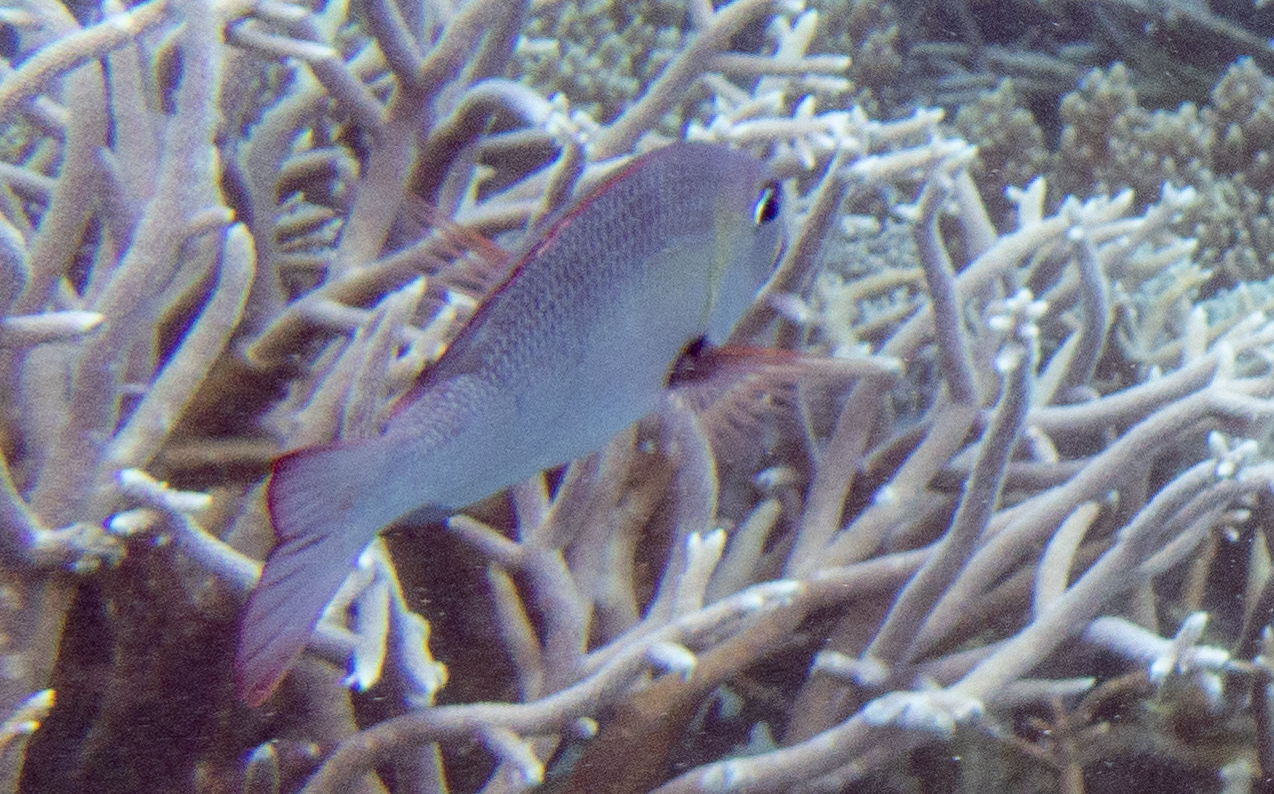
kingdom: Animalia
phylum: Chordata
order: Perciformes
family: Lethrinidae
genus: Monotaxis
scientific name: Monotaxis grandoculis
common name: Bigeye emperor
